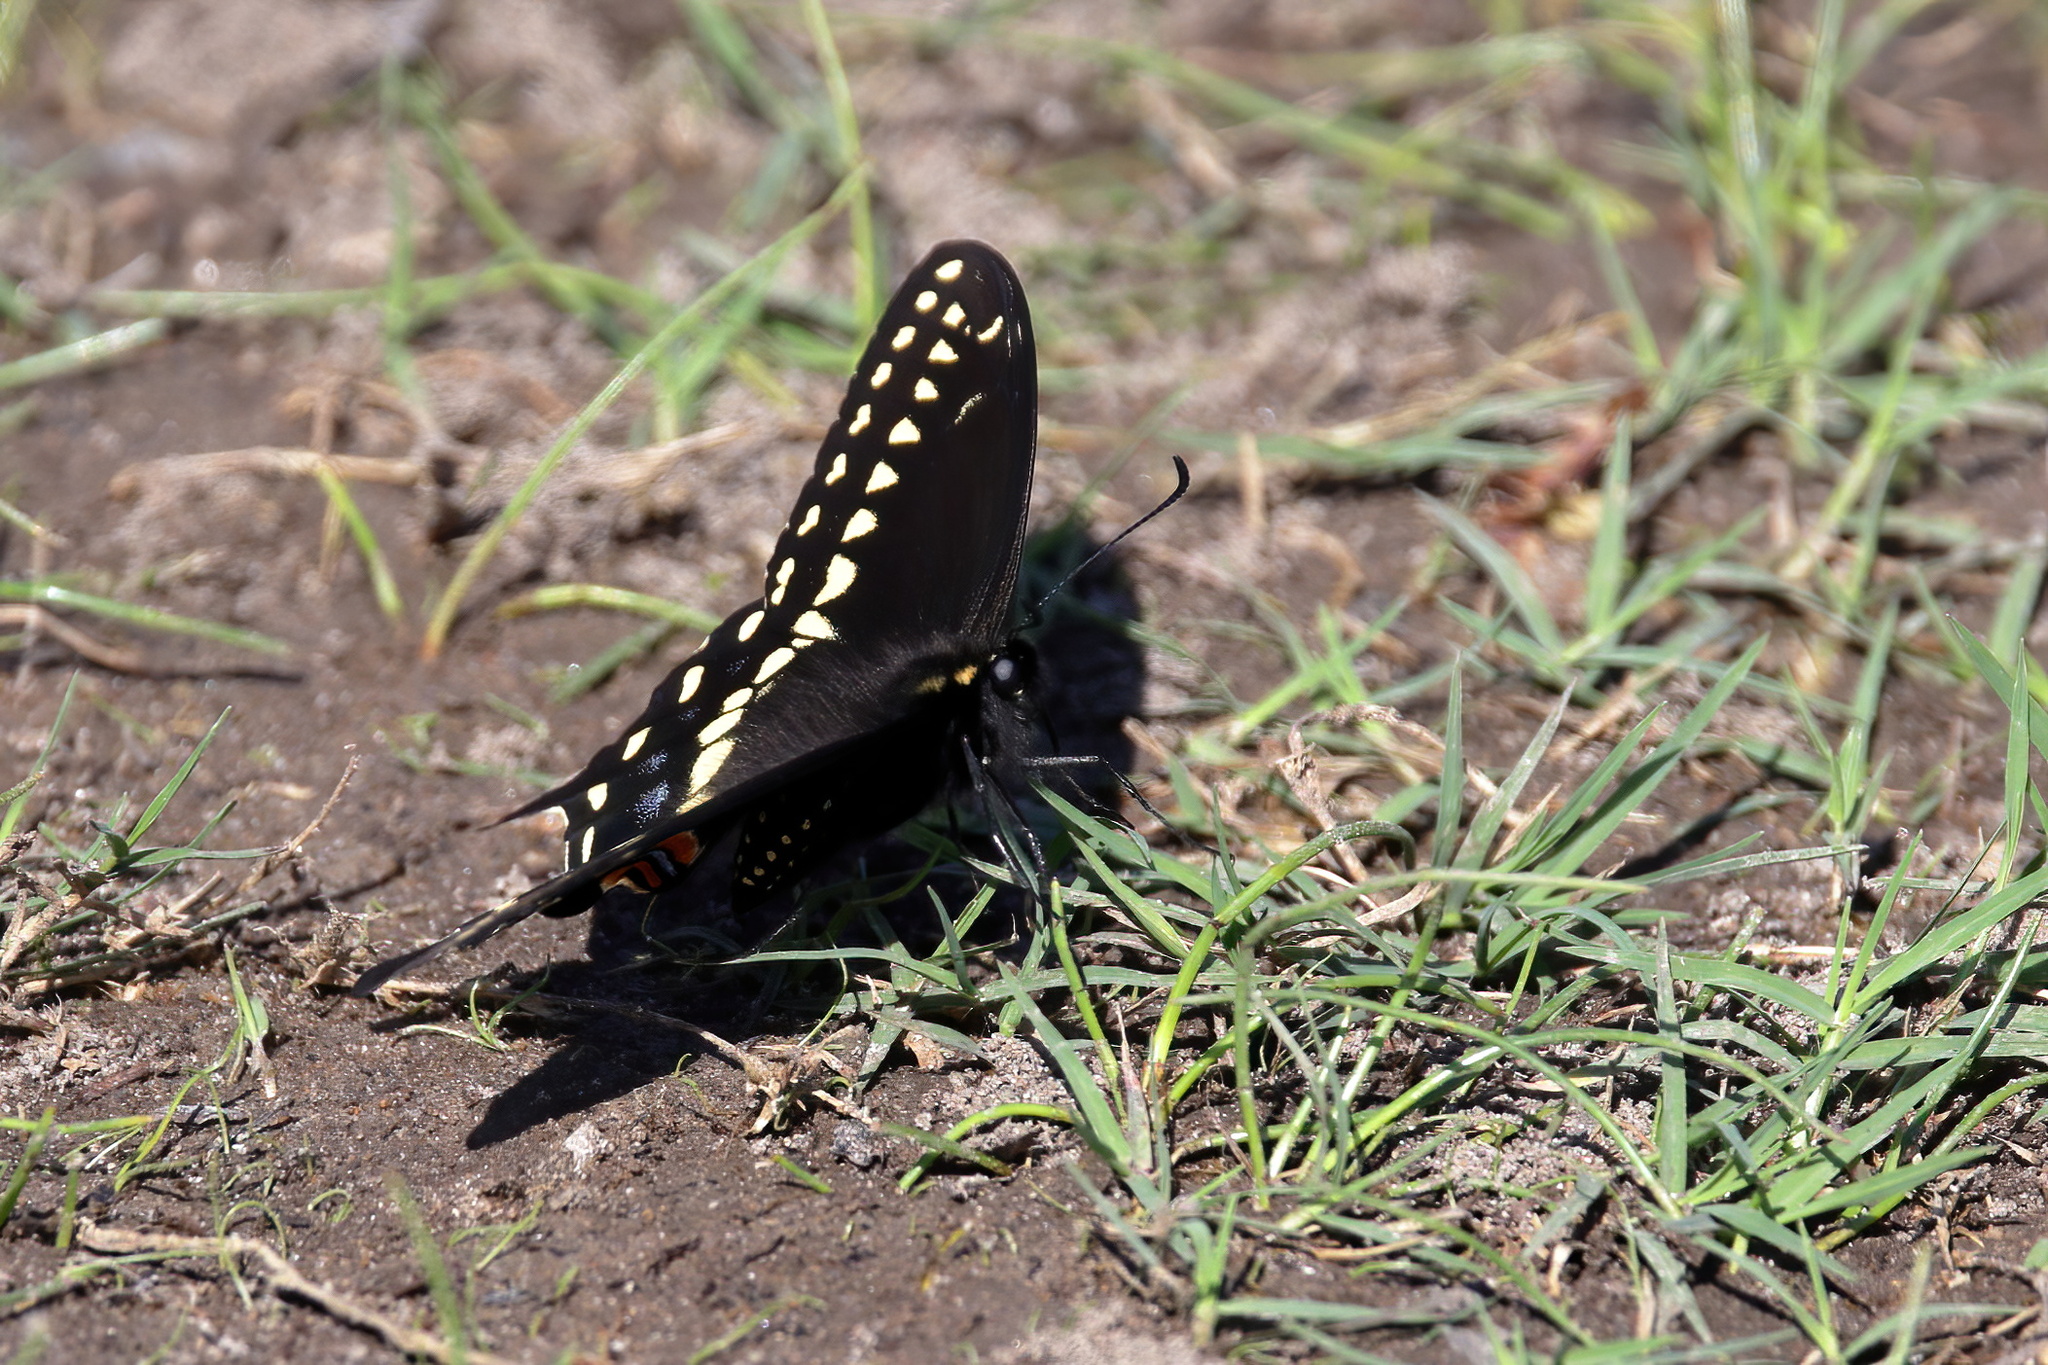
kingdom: Animalia
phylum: Arthropoda
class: Insecta
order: Lepidoptera
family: Papilionidae
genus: Papilio
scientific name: Papilio polyxenes
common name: Black swallowtail
